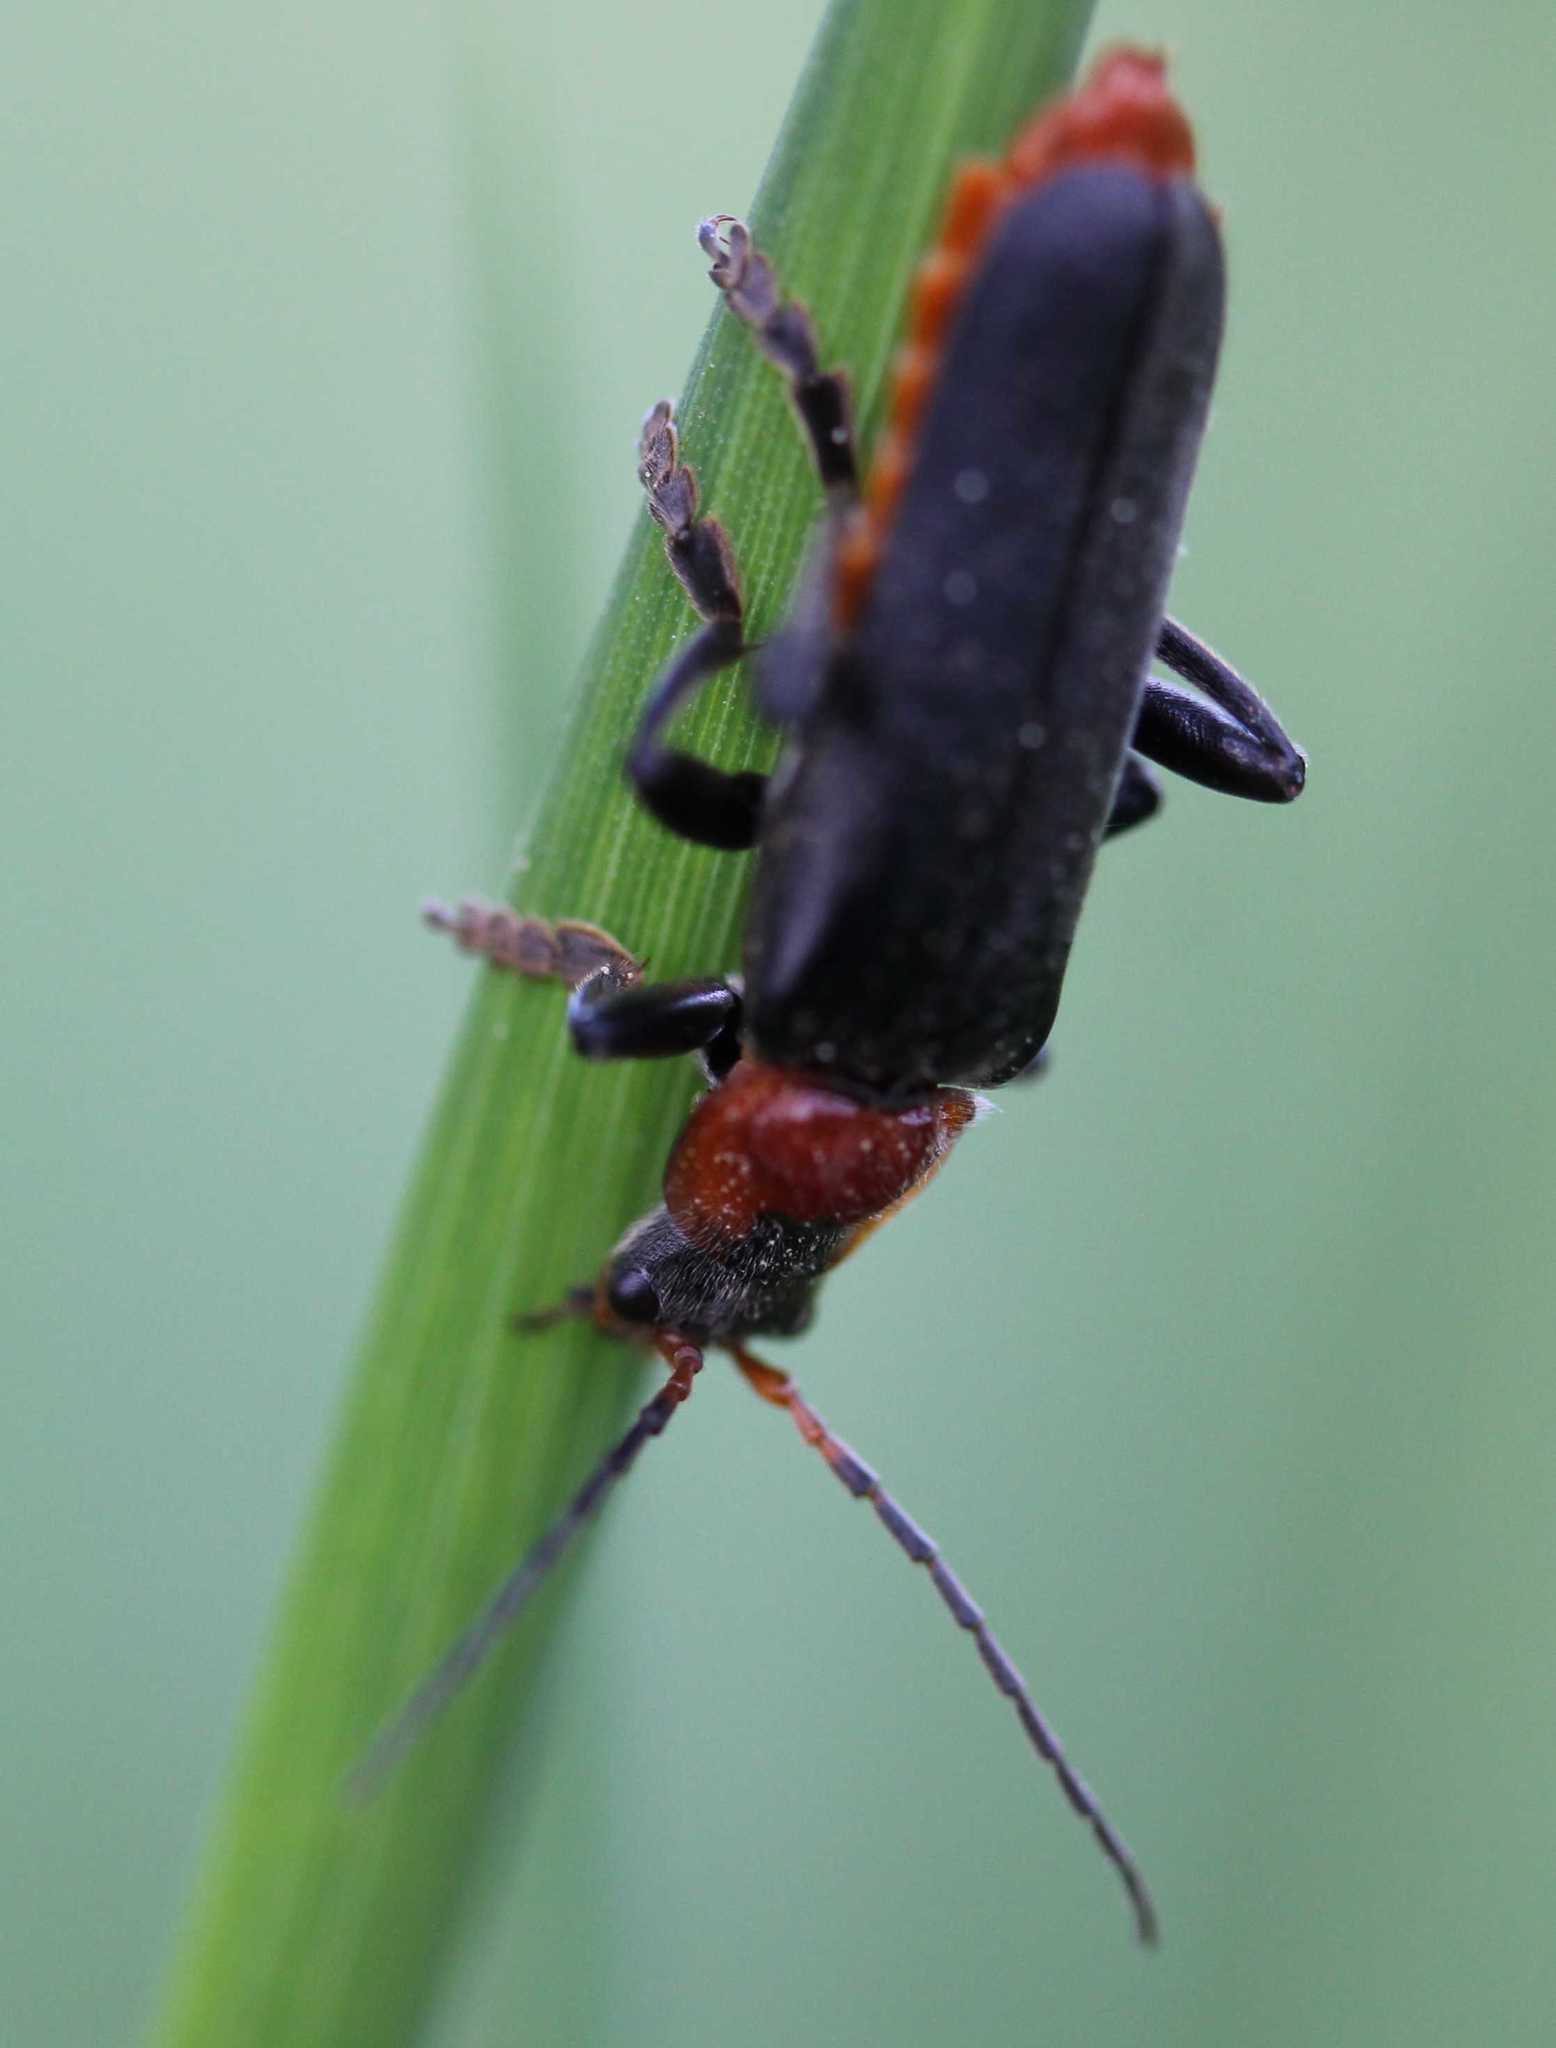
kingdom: Animalia
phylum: Arthropoda
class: Insecta
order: Coleoptera
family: Cantharidae
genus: Cantharis
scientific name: Cantharis fusca
